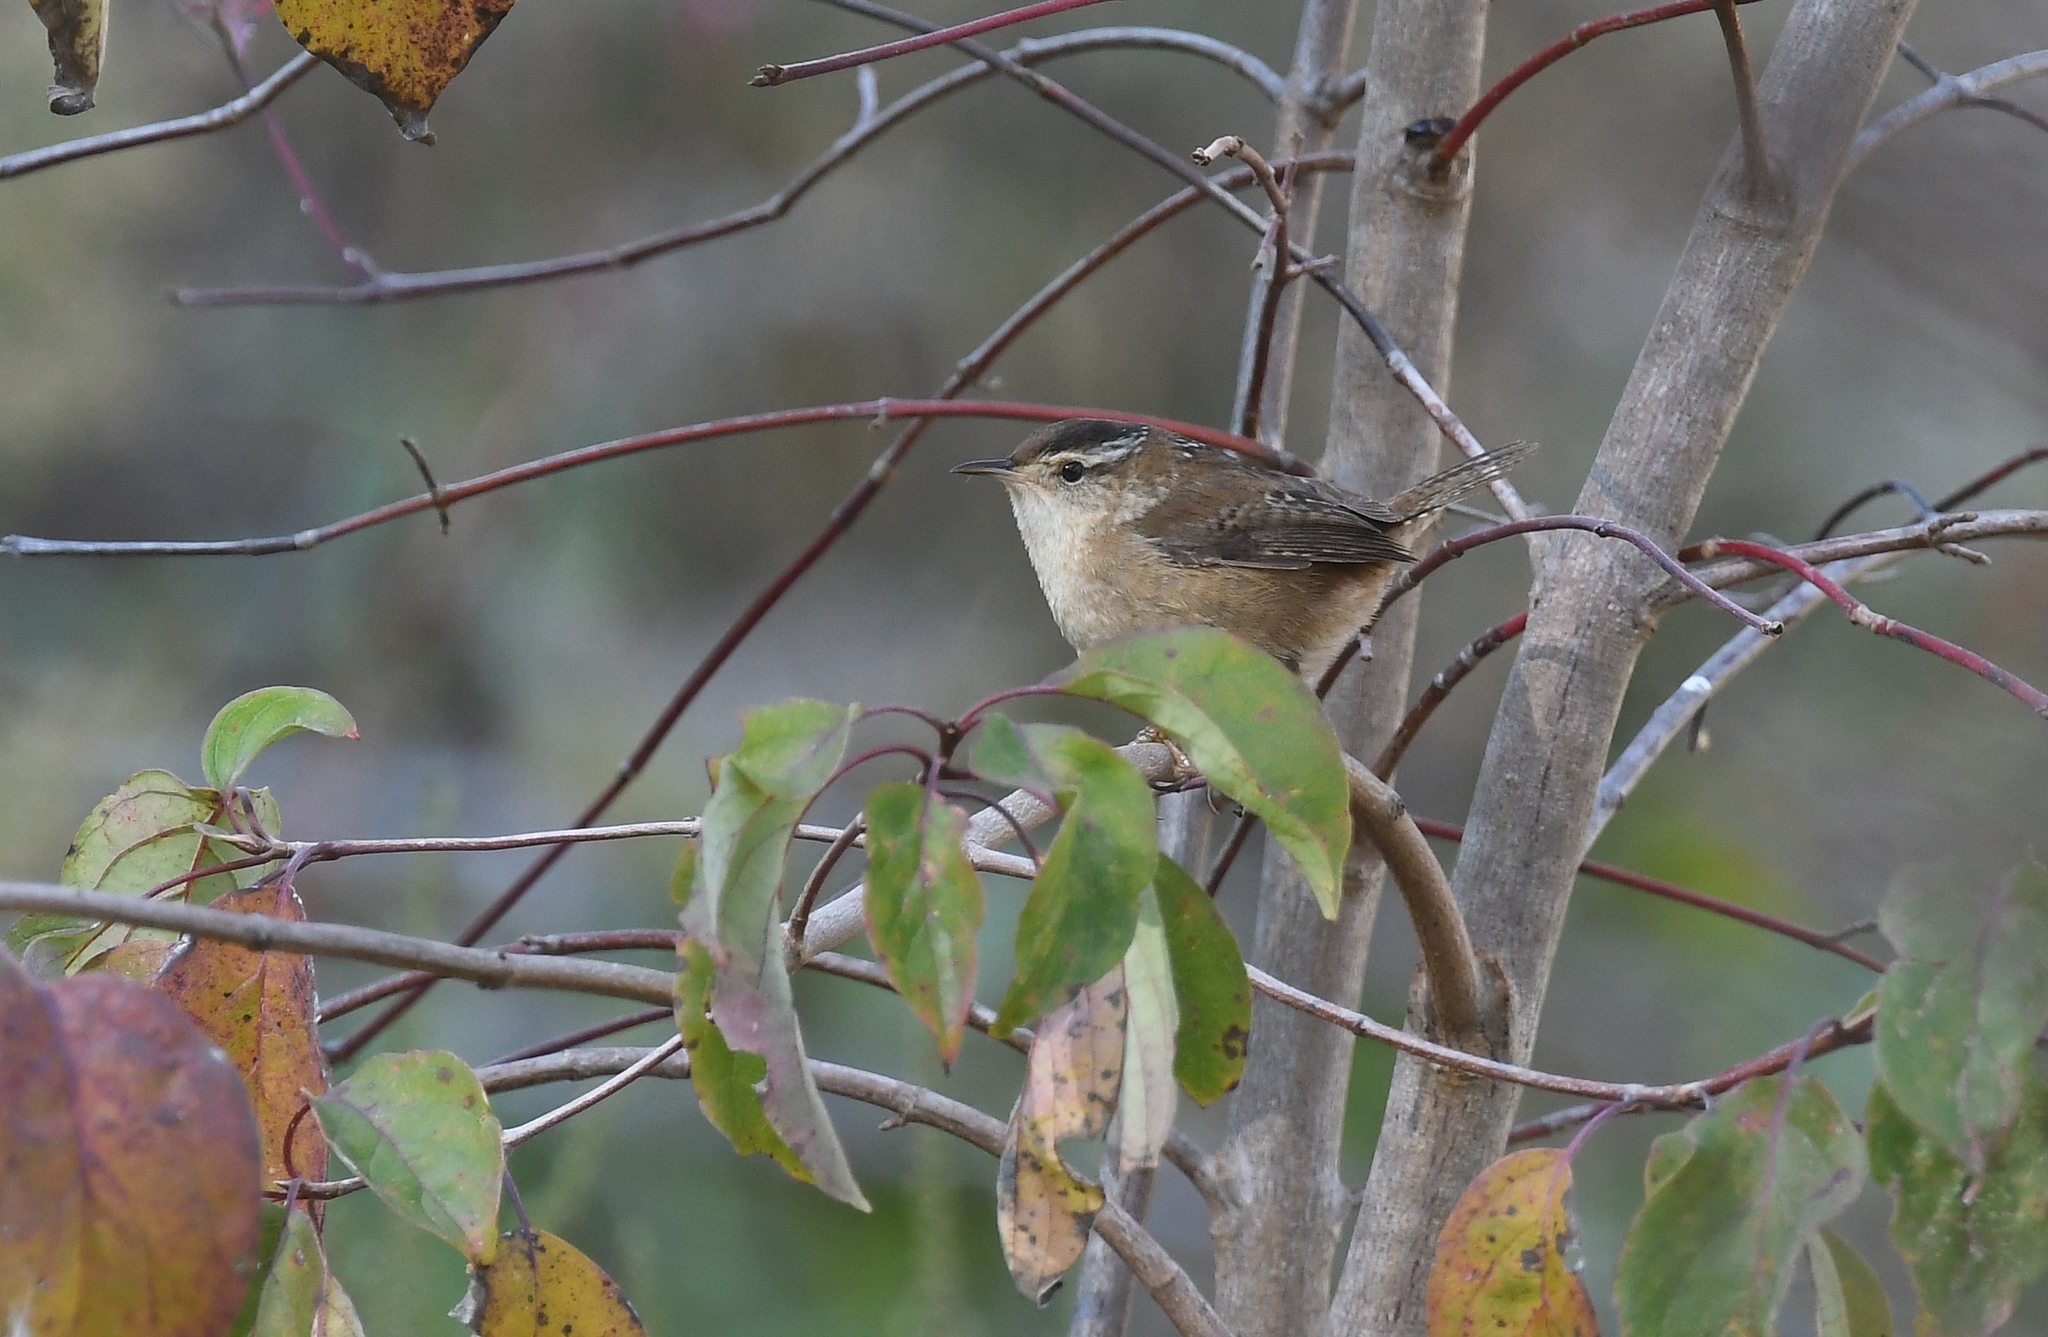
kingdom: Animalia
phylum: Chordata
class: Aves
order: Passeriformes
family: Troglodytidae
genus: Cistothorus
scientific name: Cistothorus palustris
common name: Marsh wren
